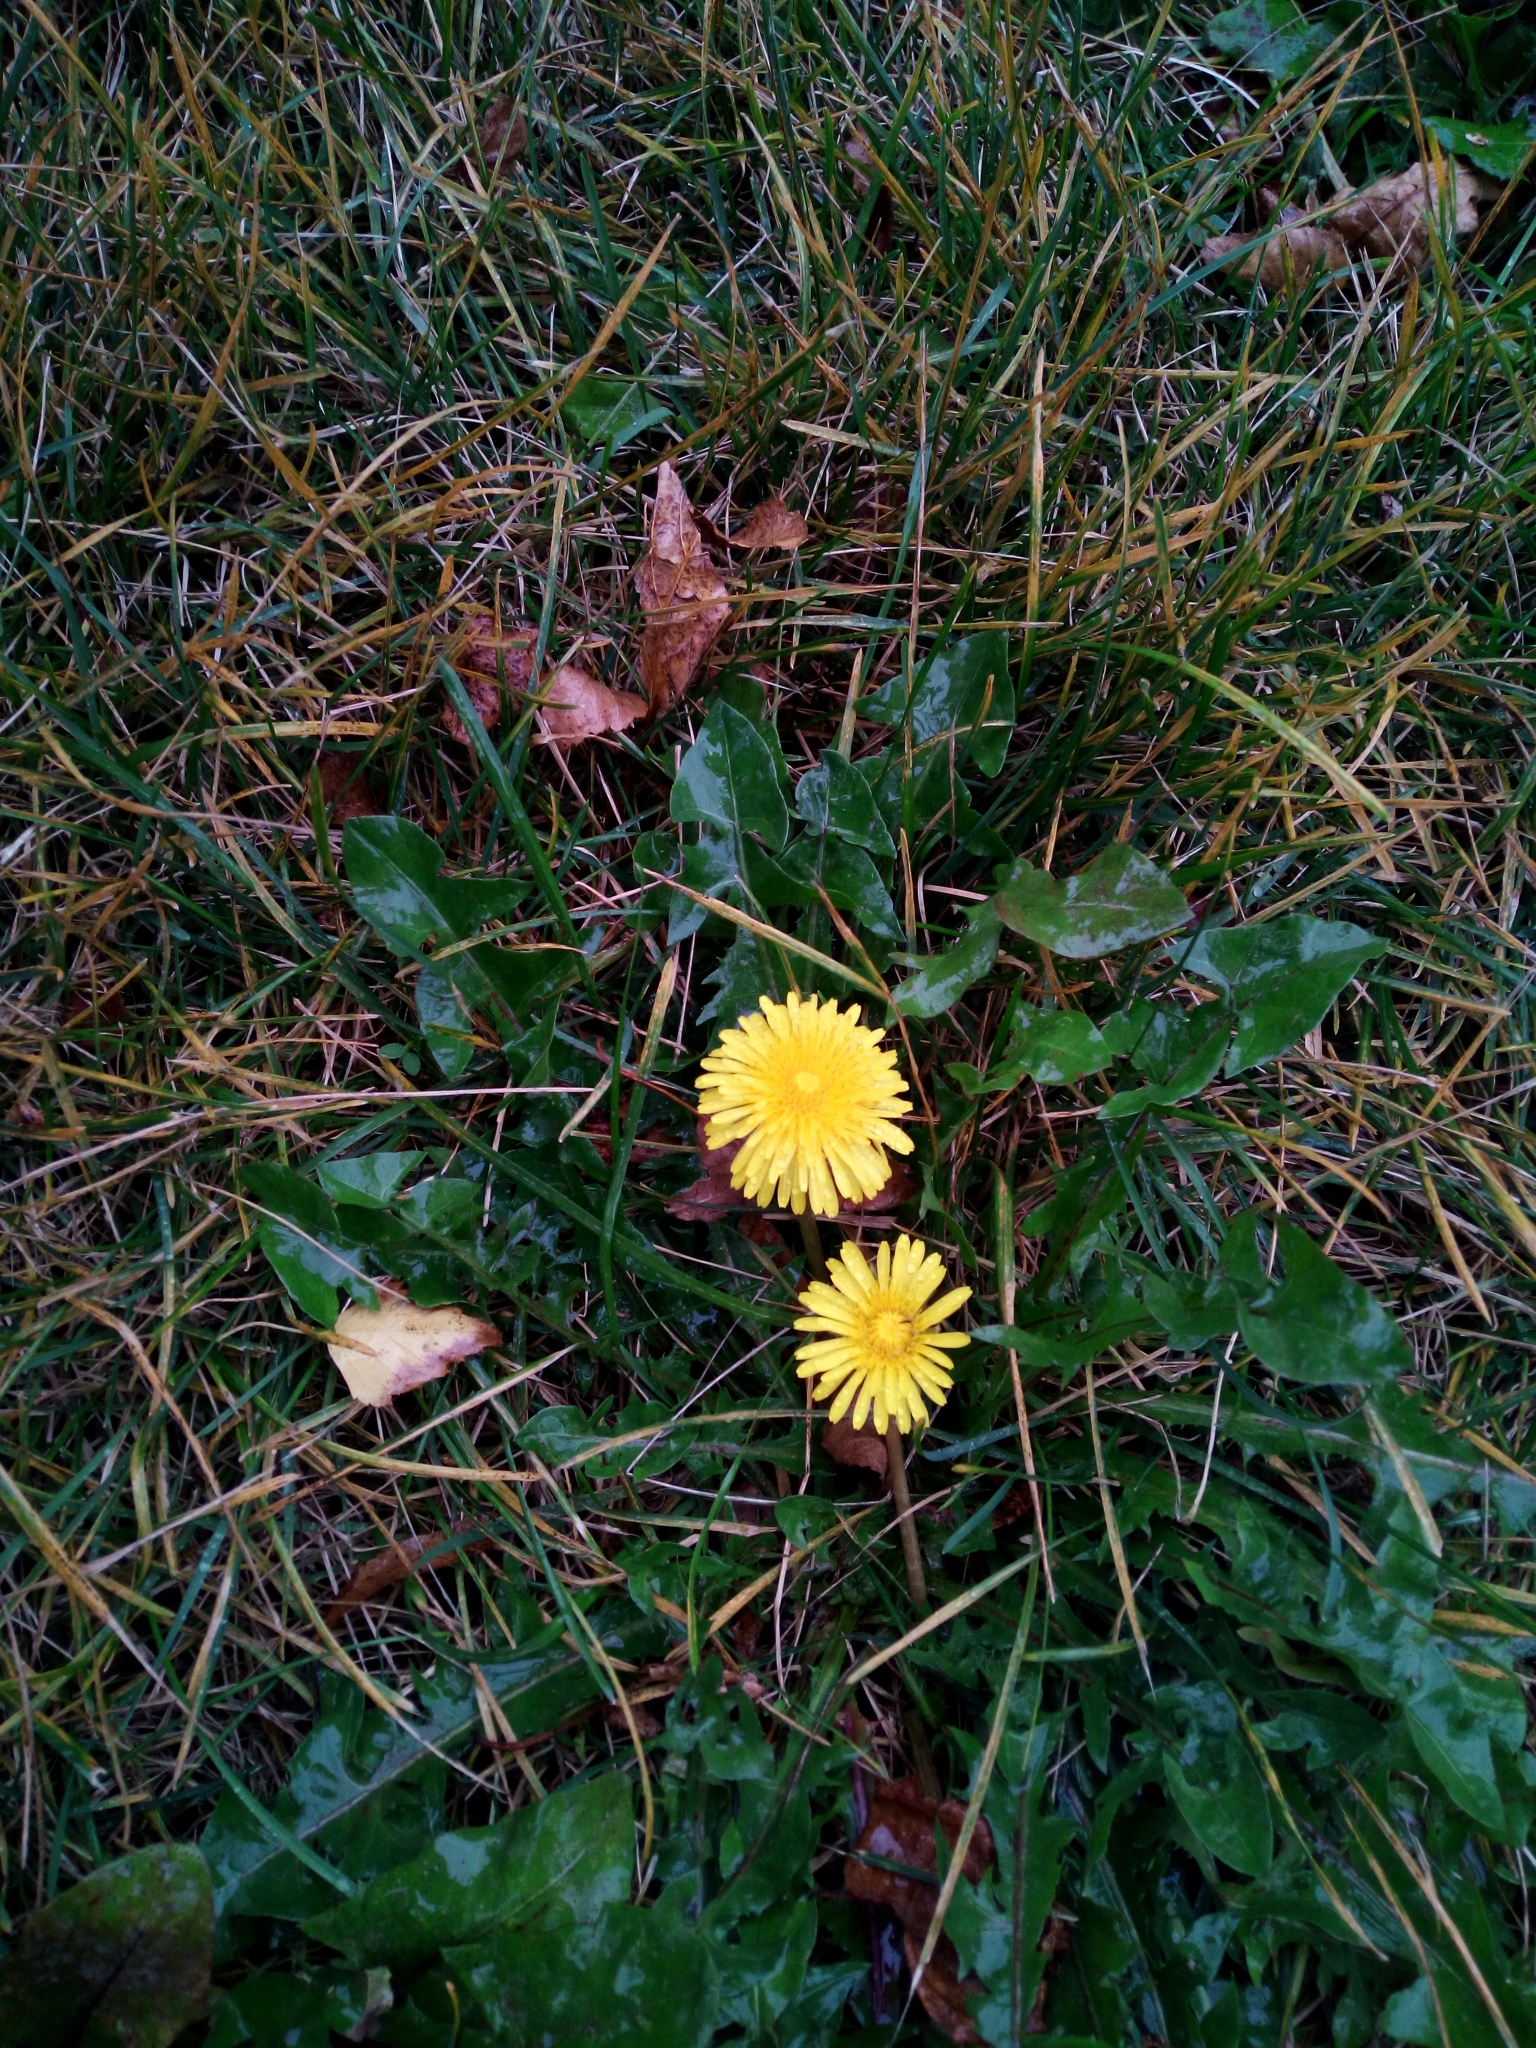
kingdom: Plantae
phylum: Tracheophyta
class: Magnoliopsida
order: Asterales
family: Asteraceae
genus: Taraxacum
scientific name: Taraxacum officinale
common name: Common dandelion
